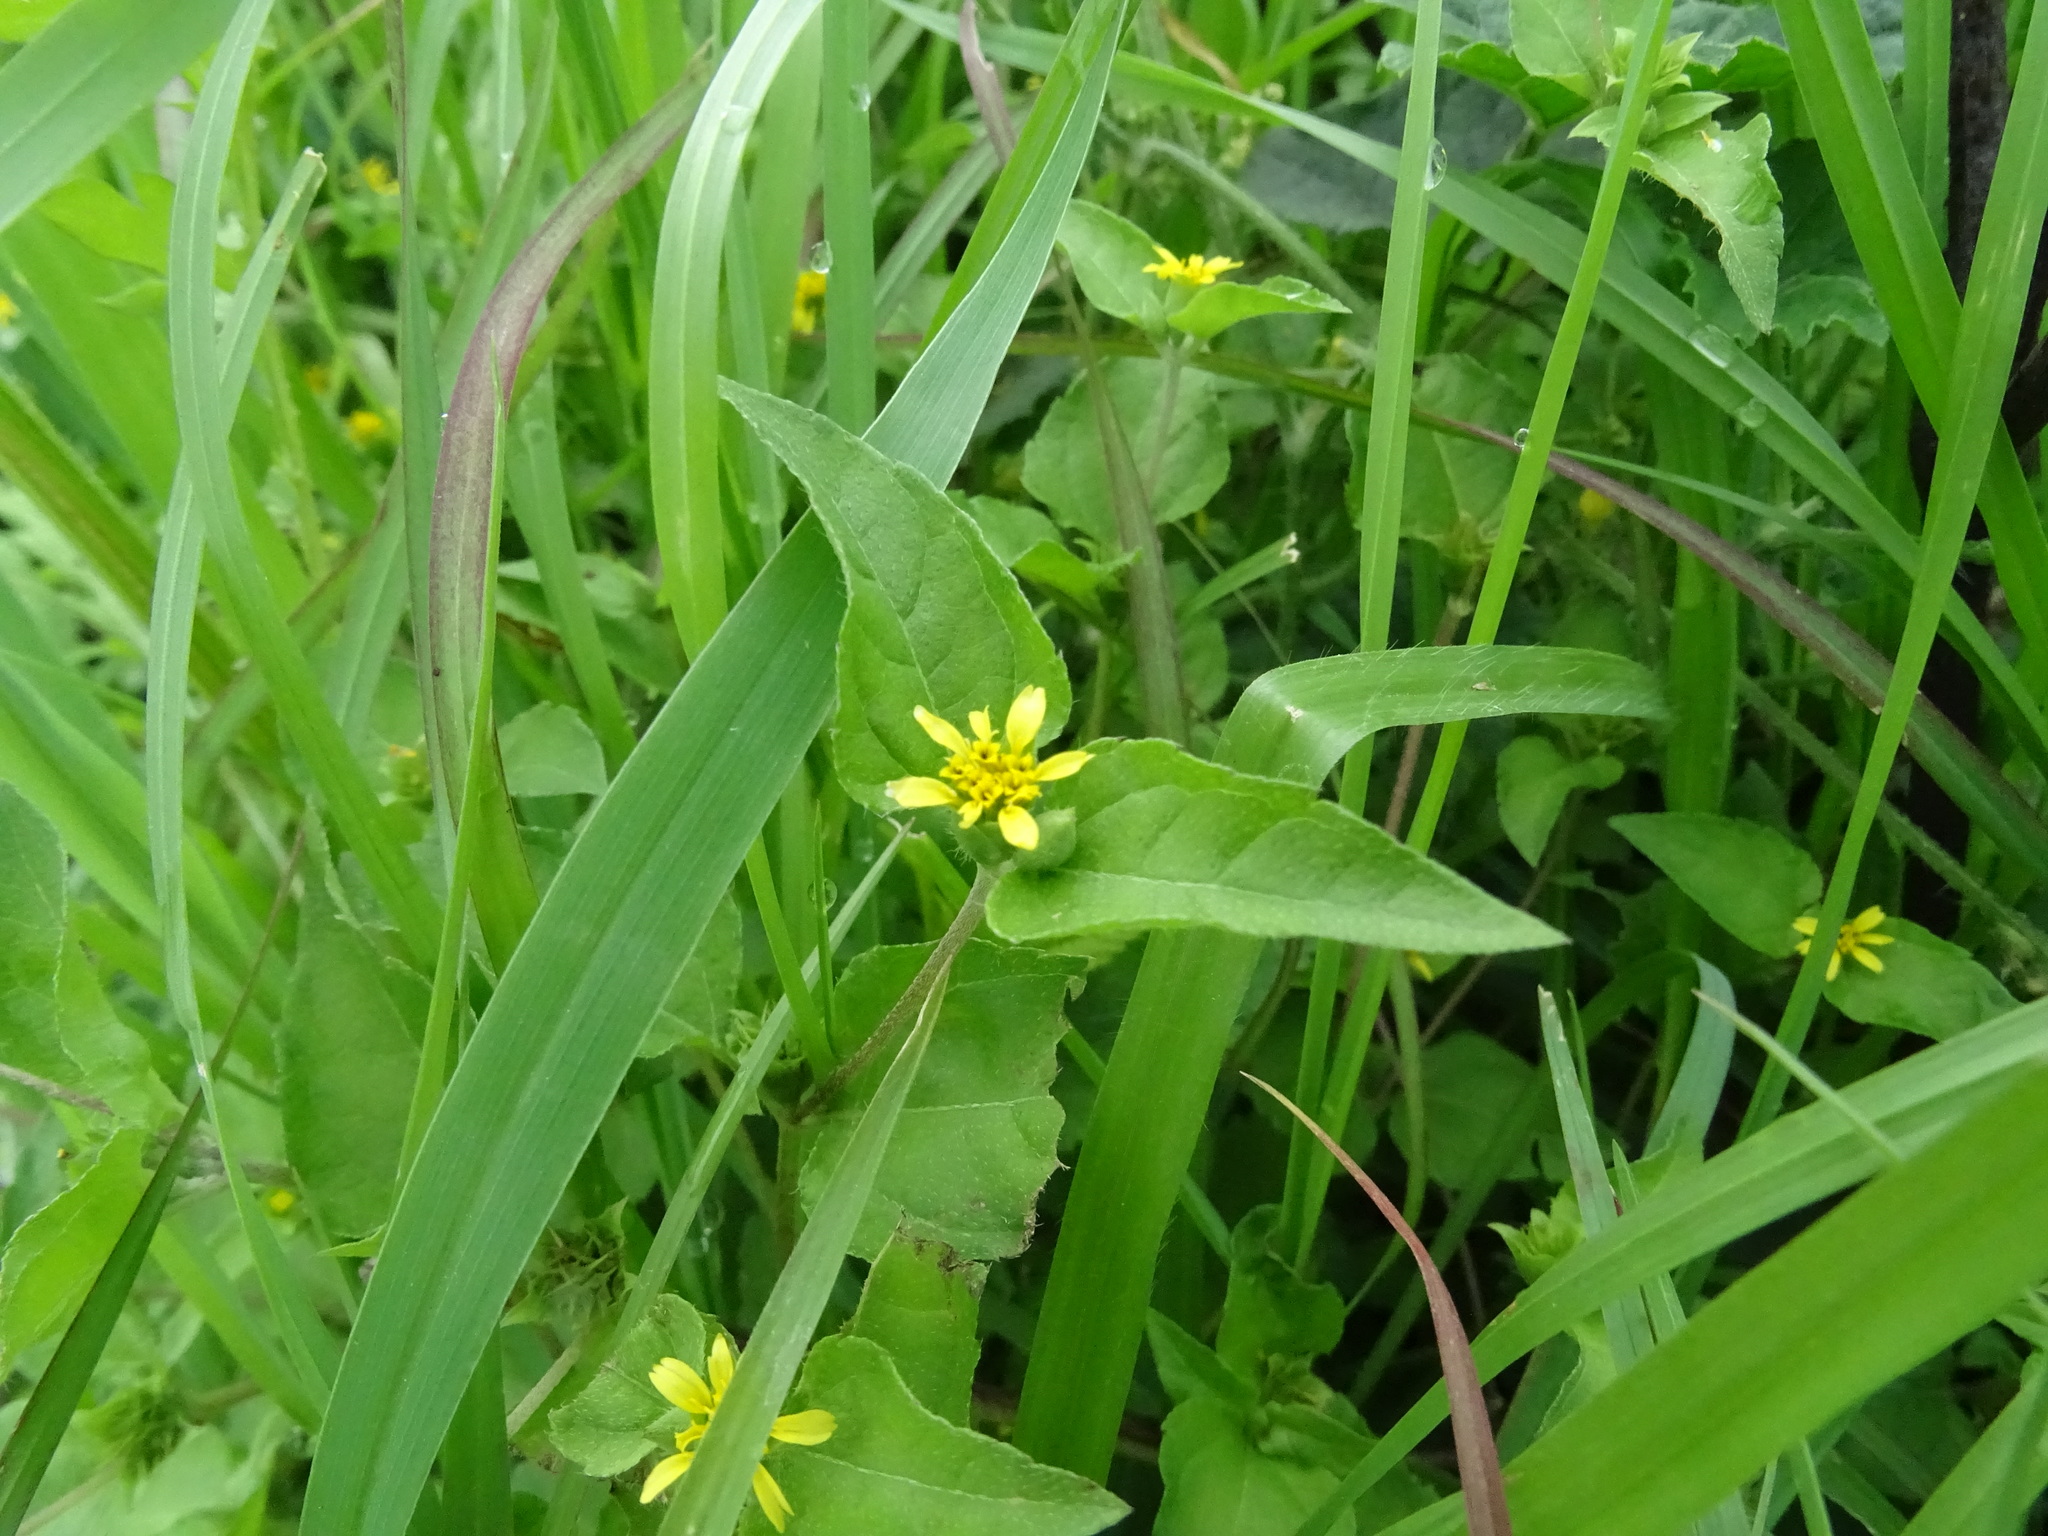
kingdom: Plantae
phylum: Tracheophyta
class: Magnoliopsida
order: Asterales
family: Asteraceae
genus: Calyptocarpus
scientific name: Calyptocarpus vialis
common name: Straggler daisy
